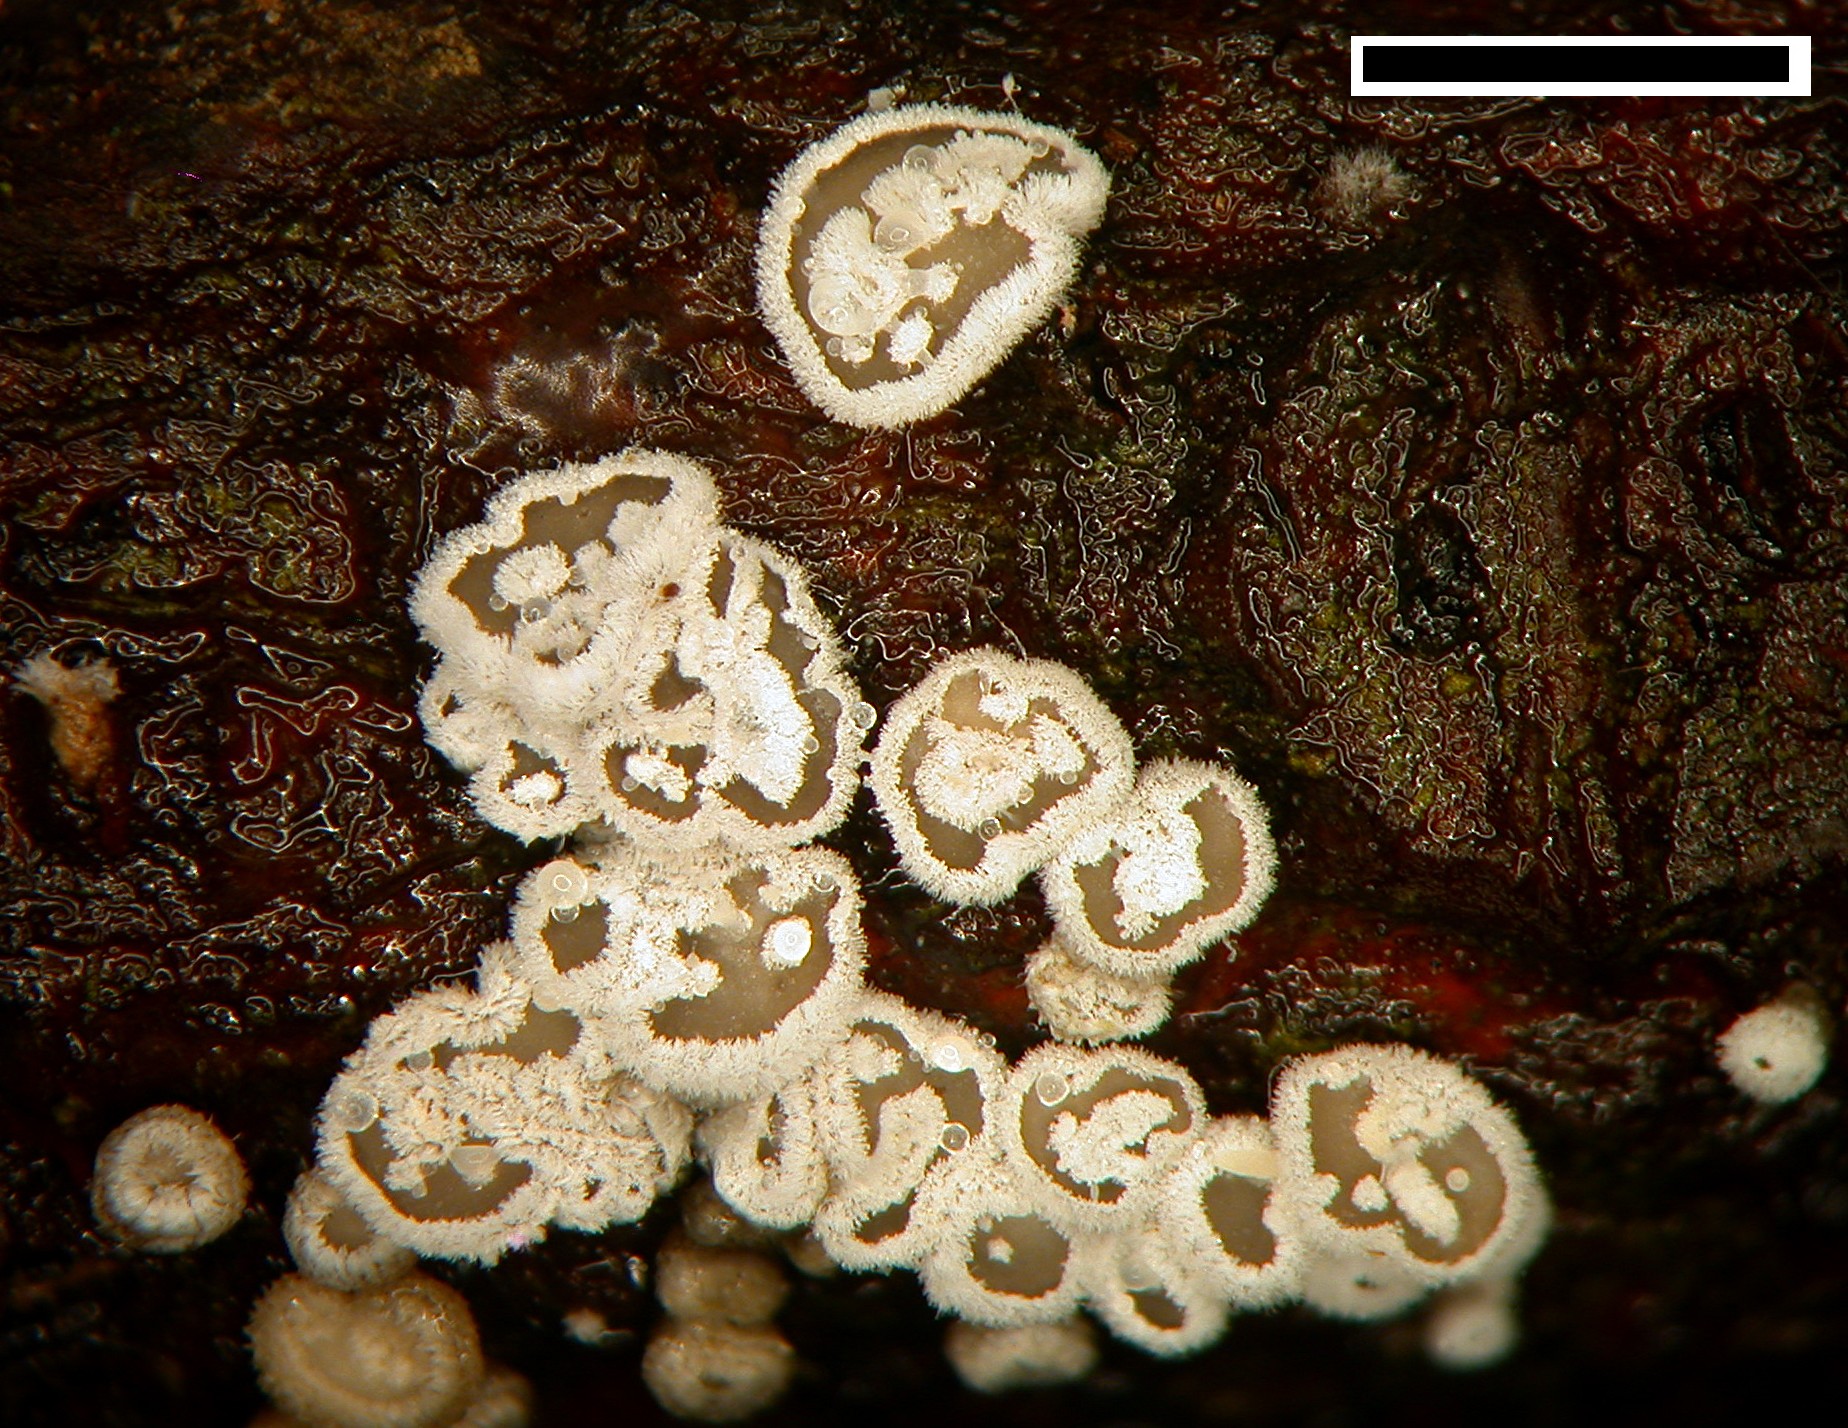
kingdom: Fungi
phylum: Basidiomycota
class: Agaricomycetes
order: Agaricales
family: Niaceae
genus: Lachnella
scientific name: Lachnella alboviolascens
